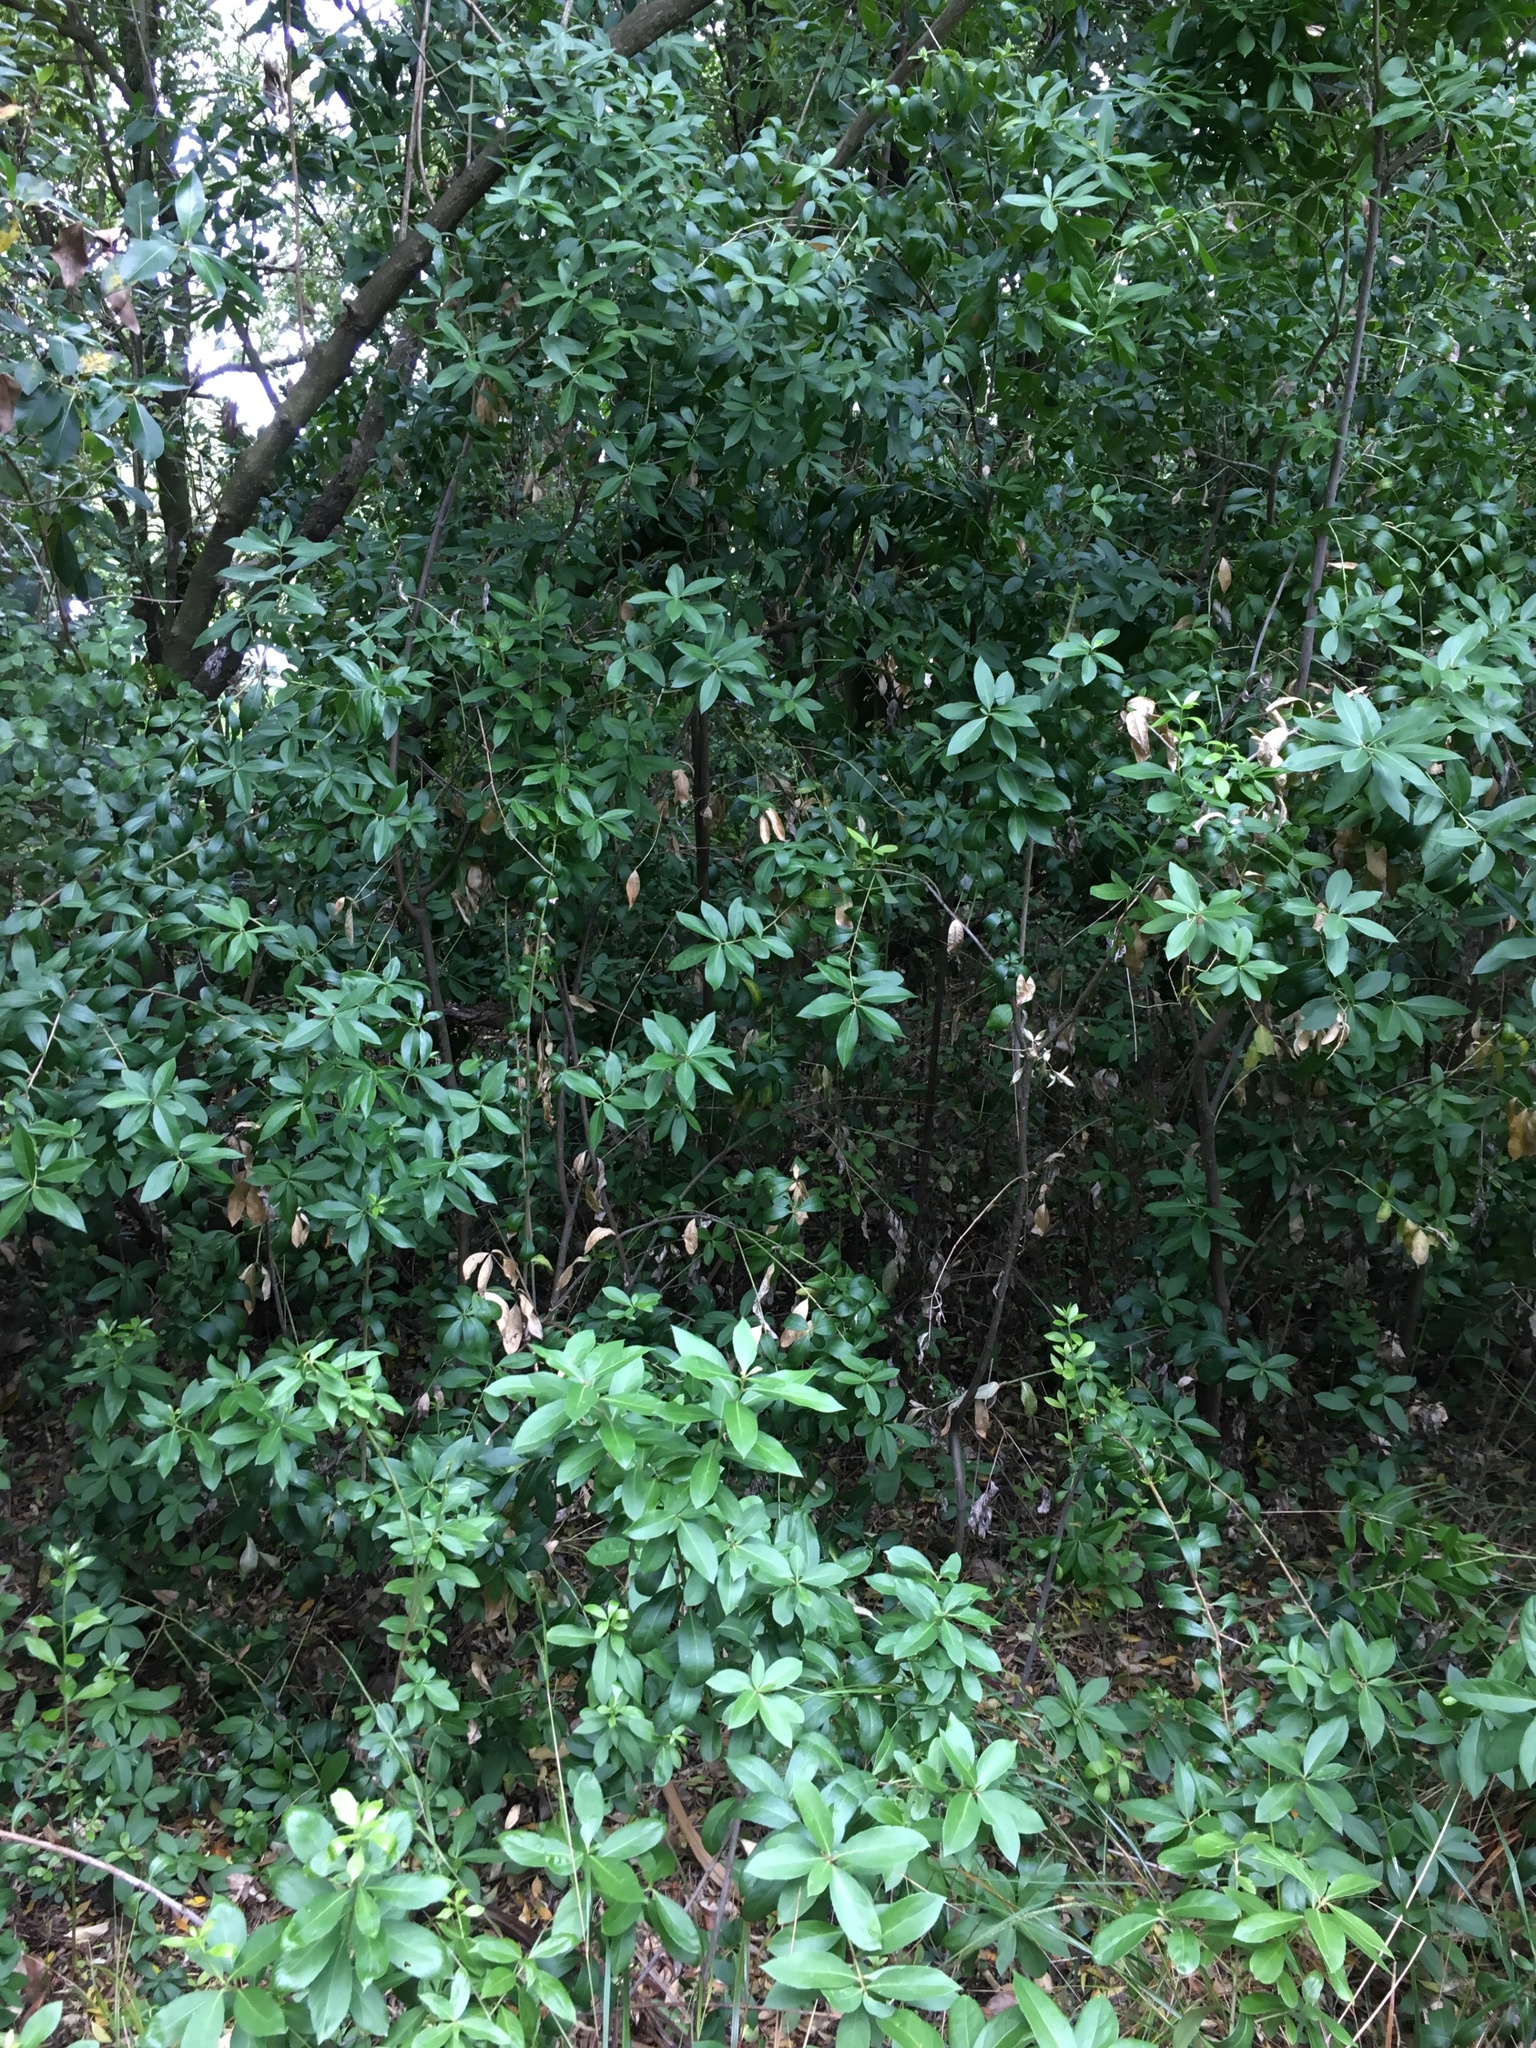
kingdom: Plantae
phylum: Tracheophyta
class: Magnoliopsida
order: Celastrales
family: Celastraceae
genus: Maytenus
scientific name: Maytenus boaria
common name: Mayten
